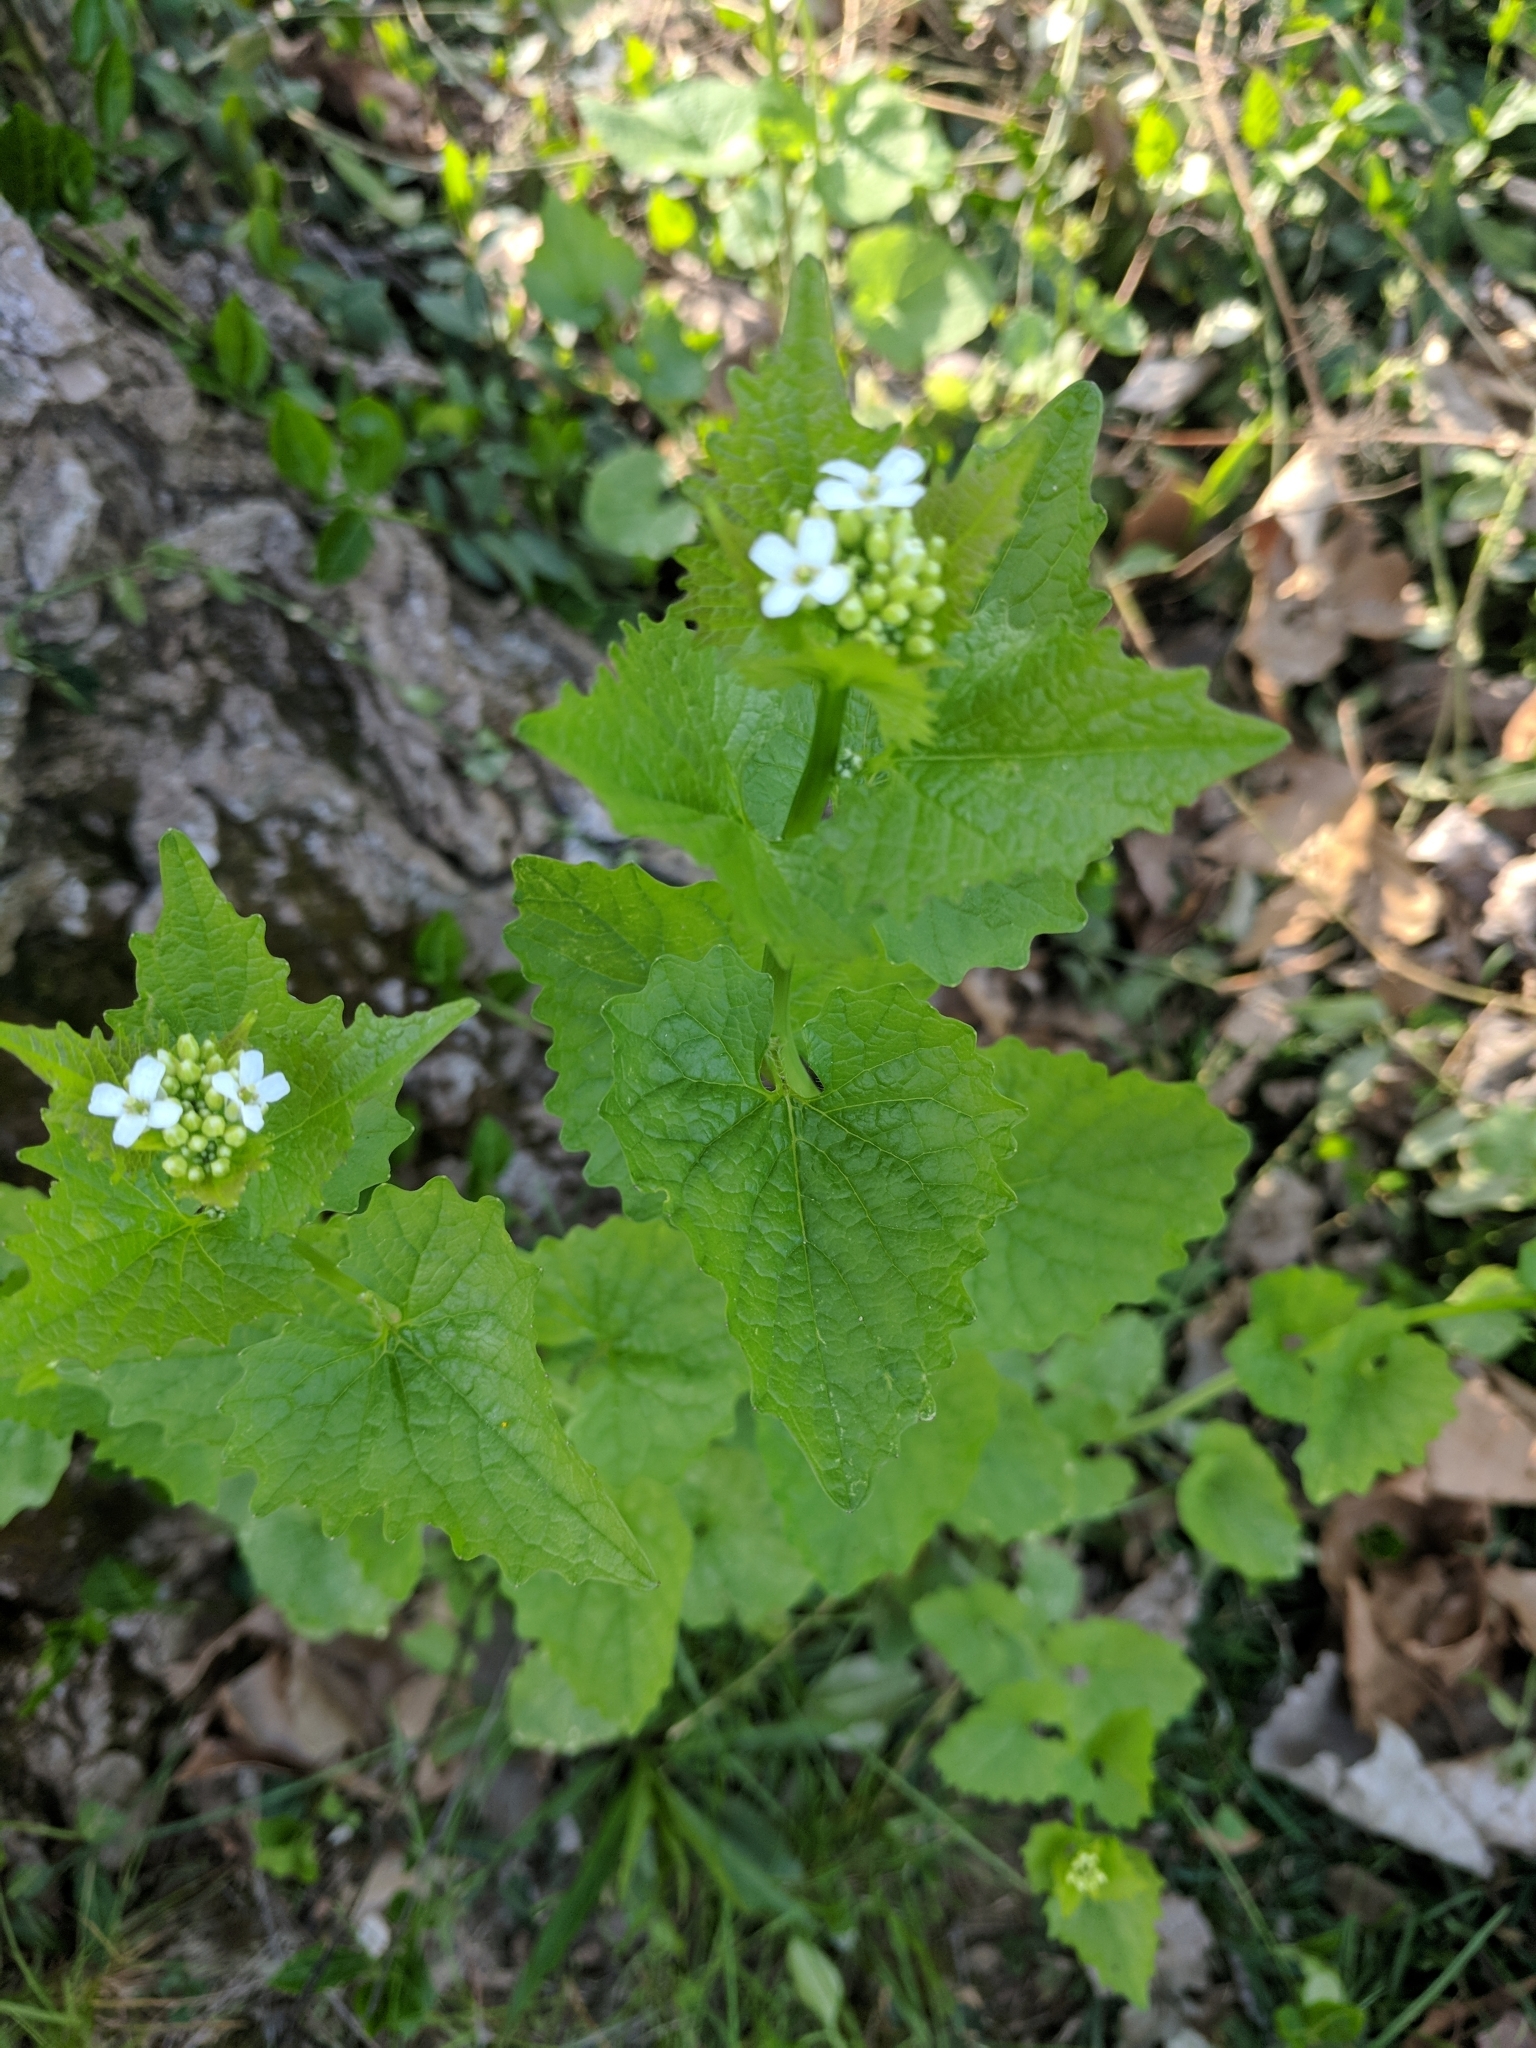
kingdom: Plantae
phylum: Tracheophyta
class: Magnoliopsida
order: Brassicales
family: Brassicaceae
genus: Alliaria
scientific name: Alliaria petiolata
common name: Garlic mustard
